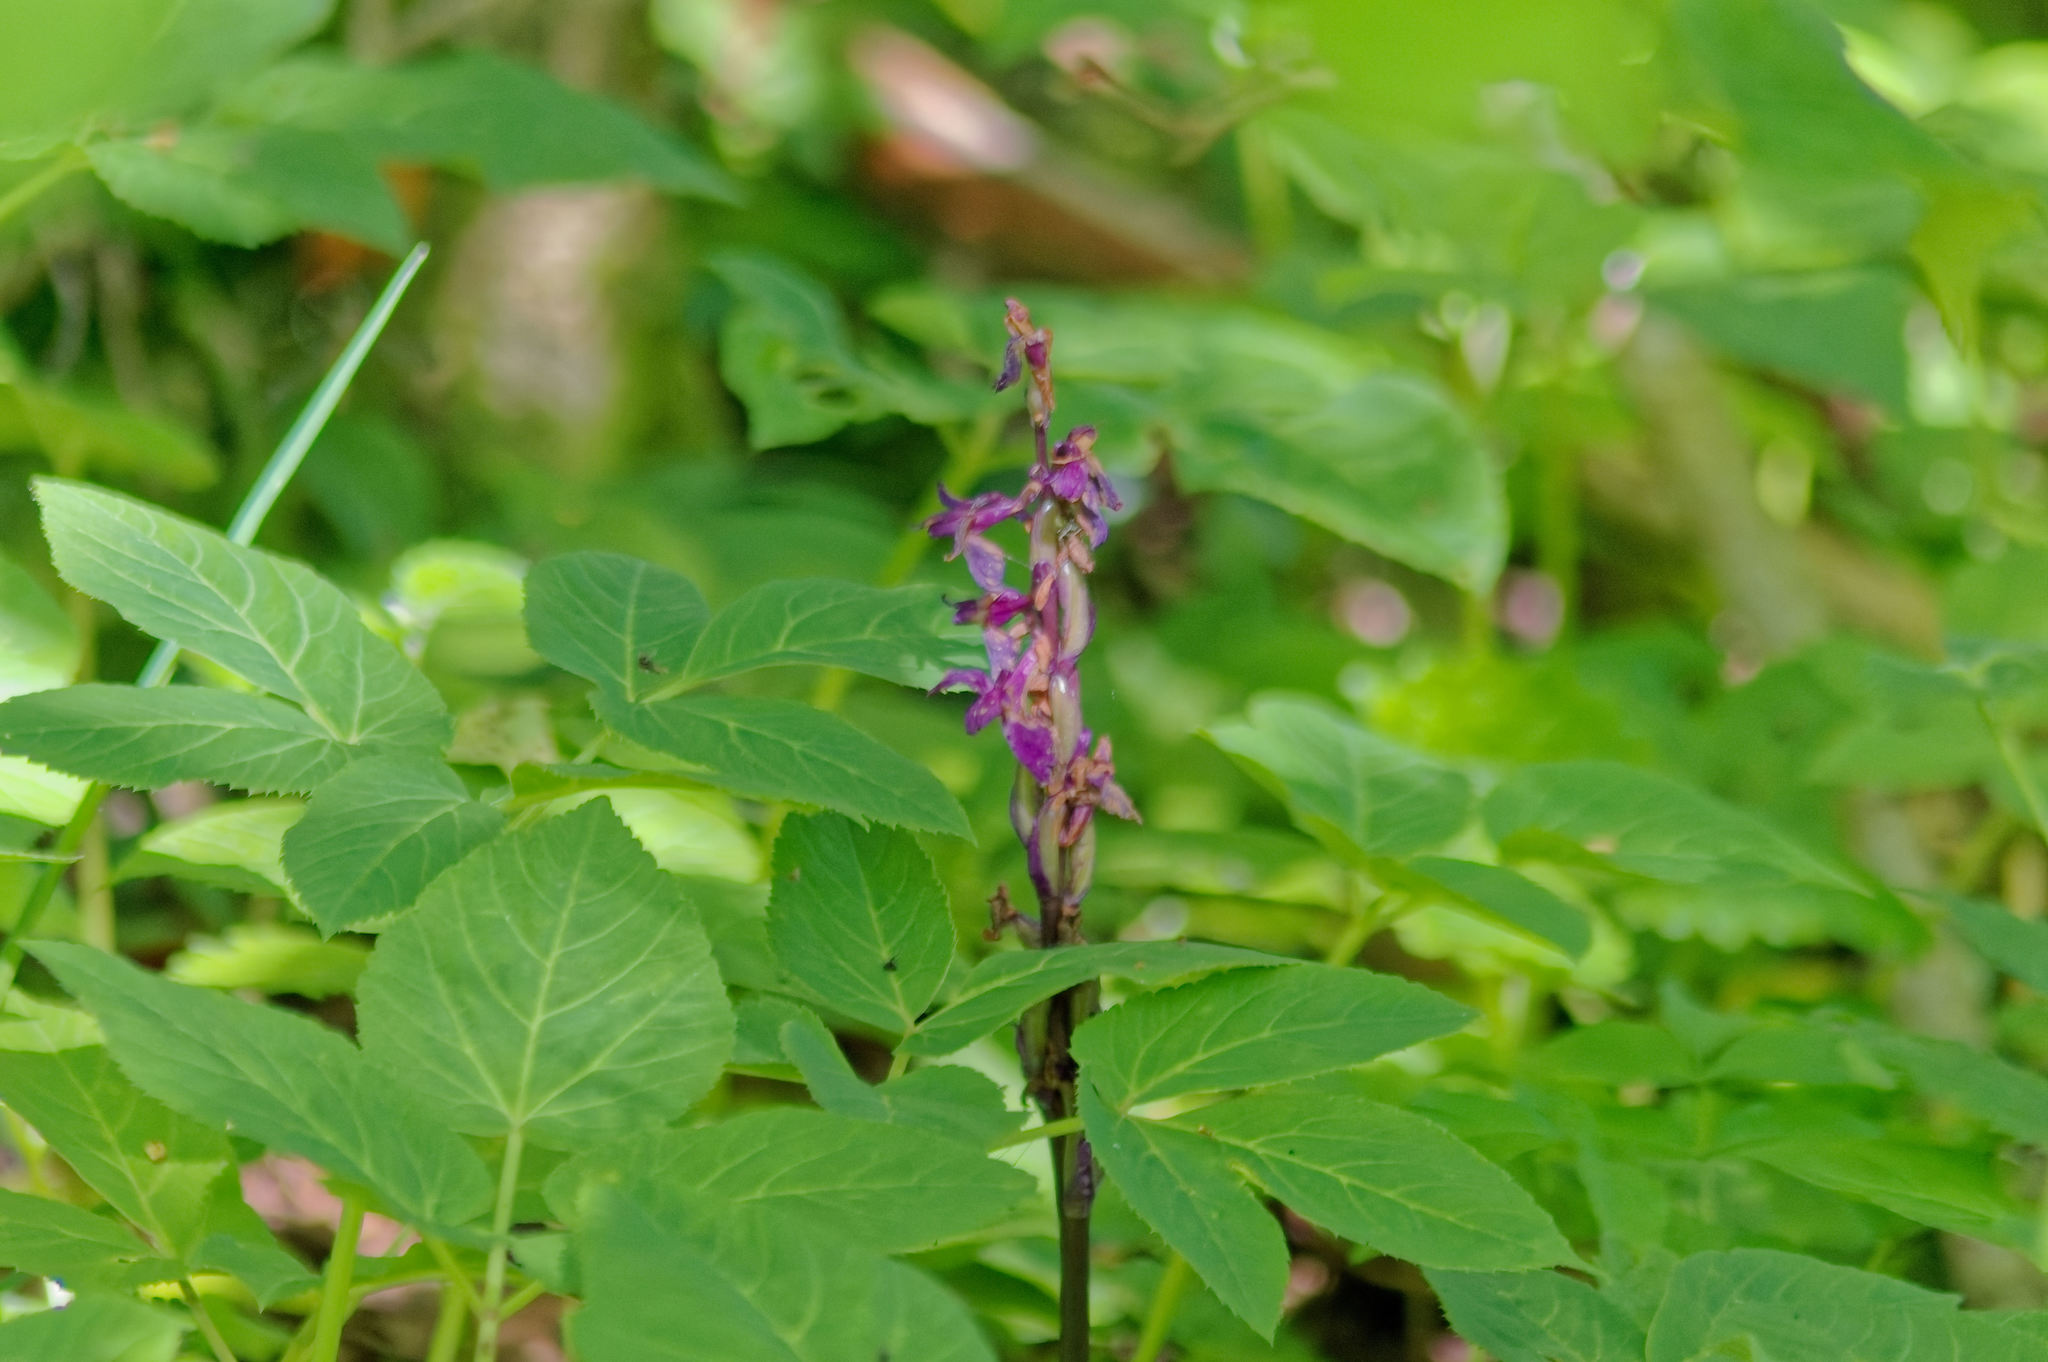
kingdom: Plantae
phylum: Tracheophyta
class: Liliopsida
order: Asparagales
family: Orchidaceae
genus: Orchis
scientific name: Orchis mascula
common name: Early-purple orchid
